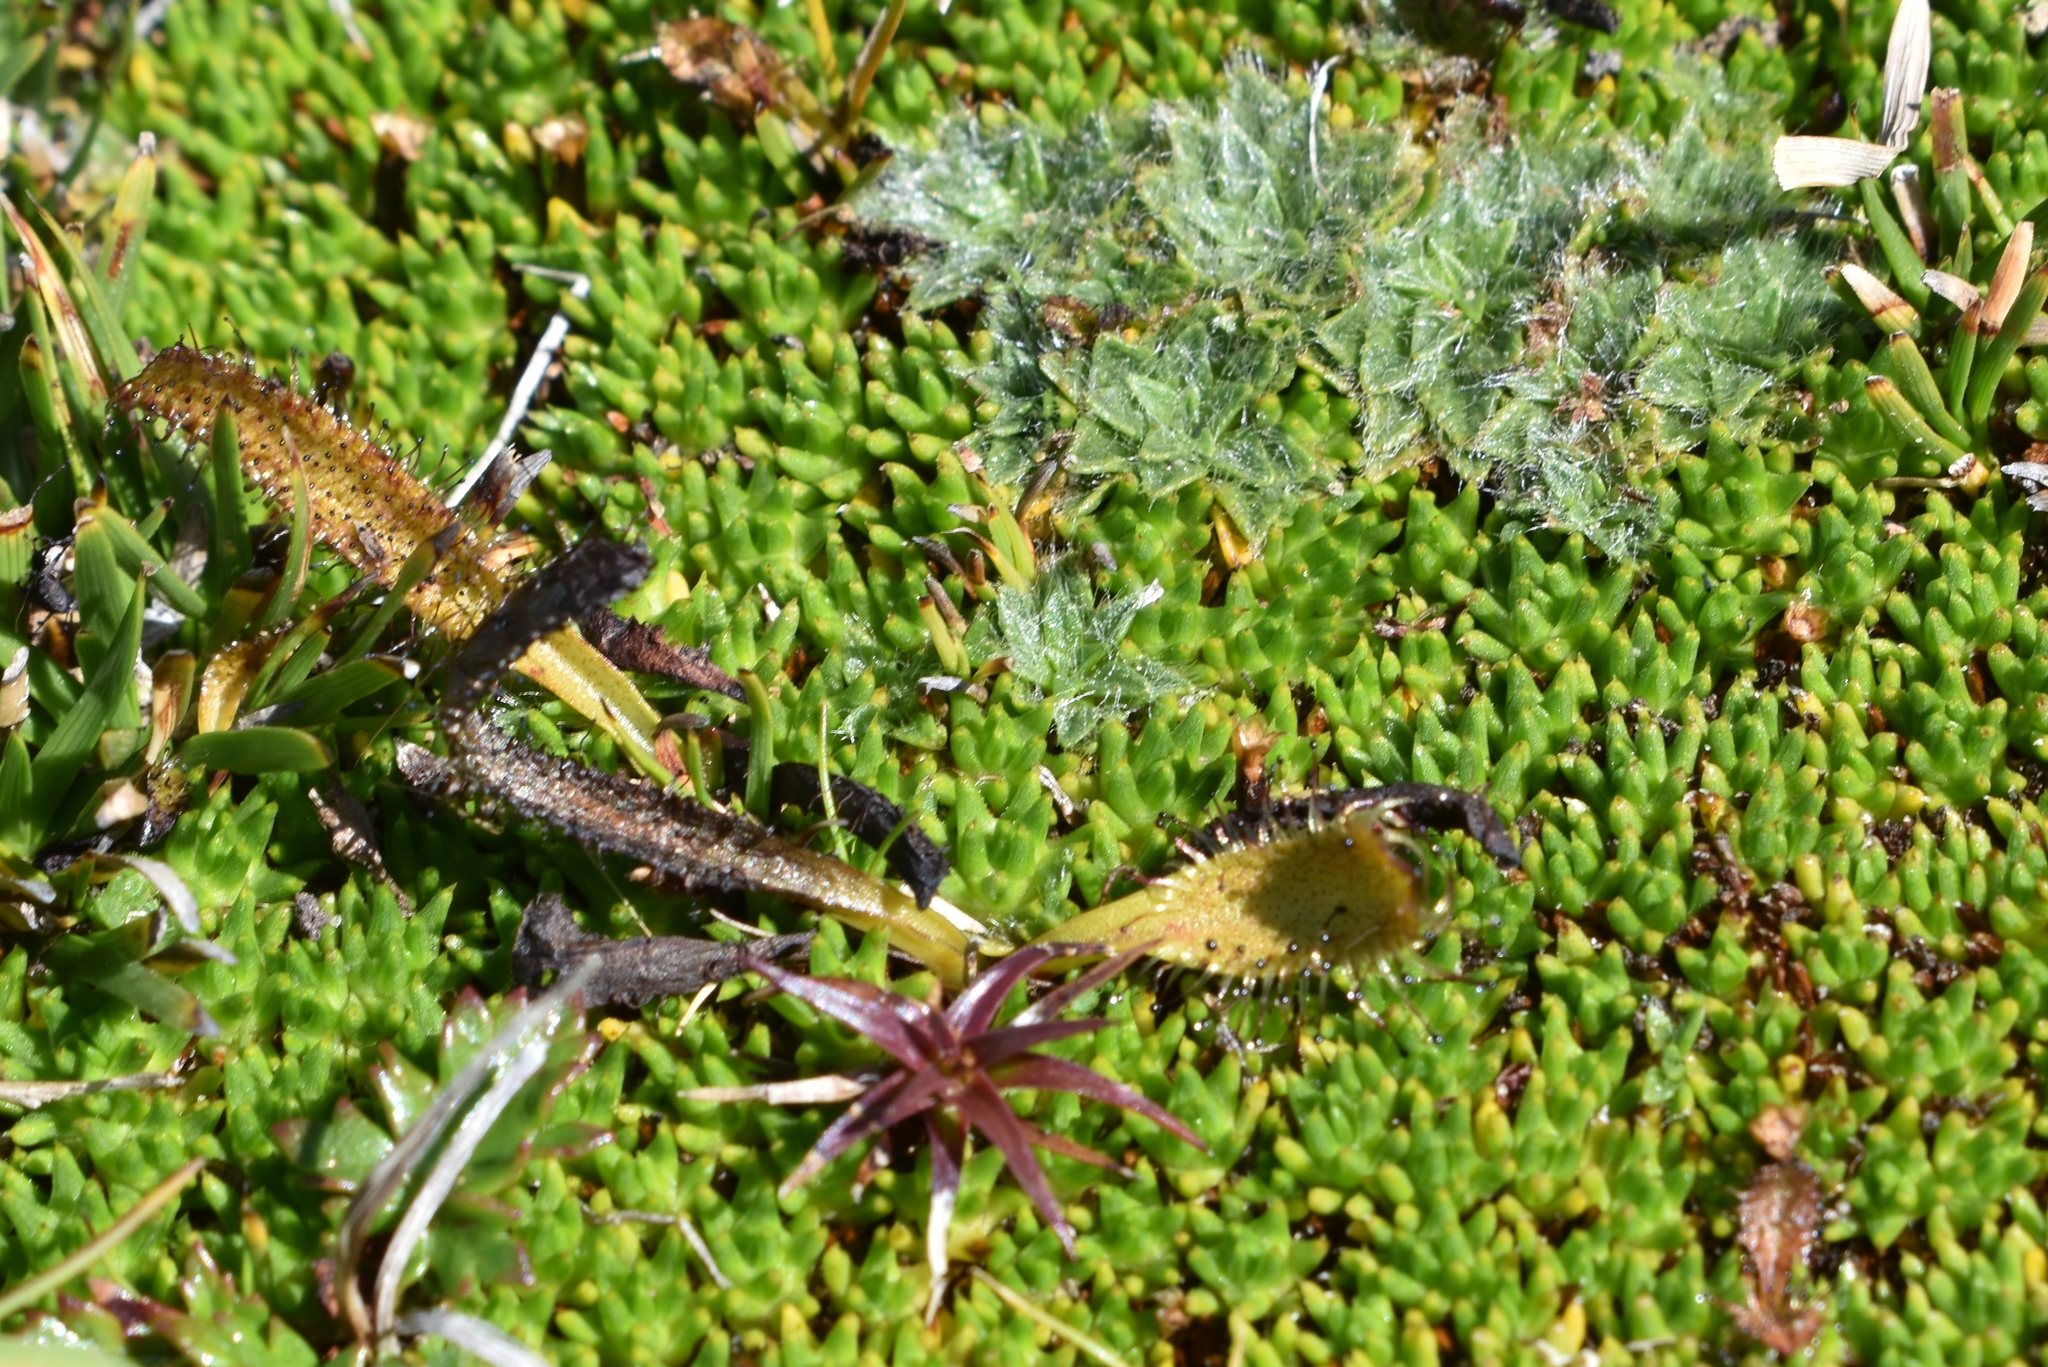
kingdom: Plantae
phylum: Tracheophyta
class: Magnoliopsida
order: Caryophyllales
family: Droseraceae
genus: Drosera
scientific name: Drosera arcturi
